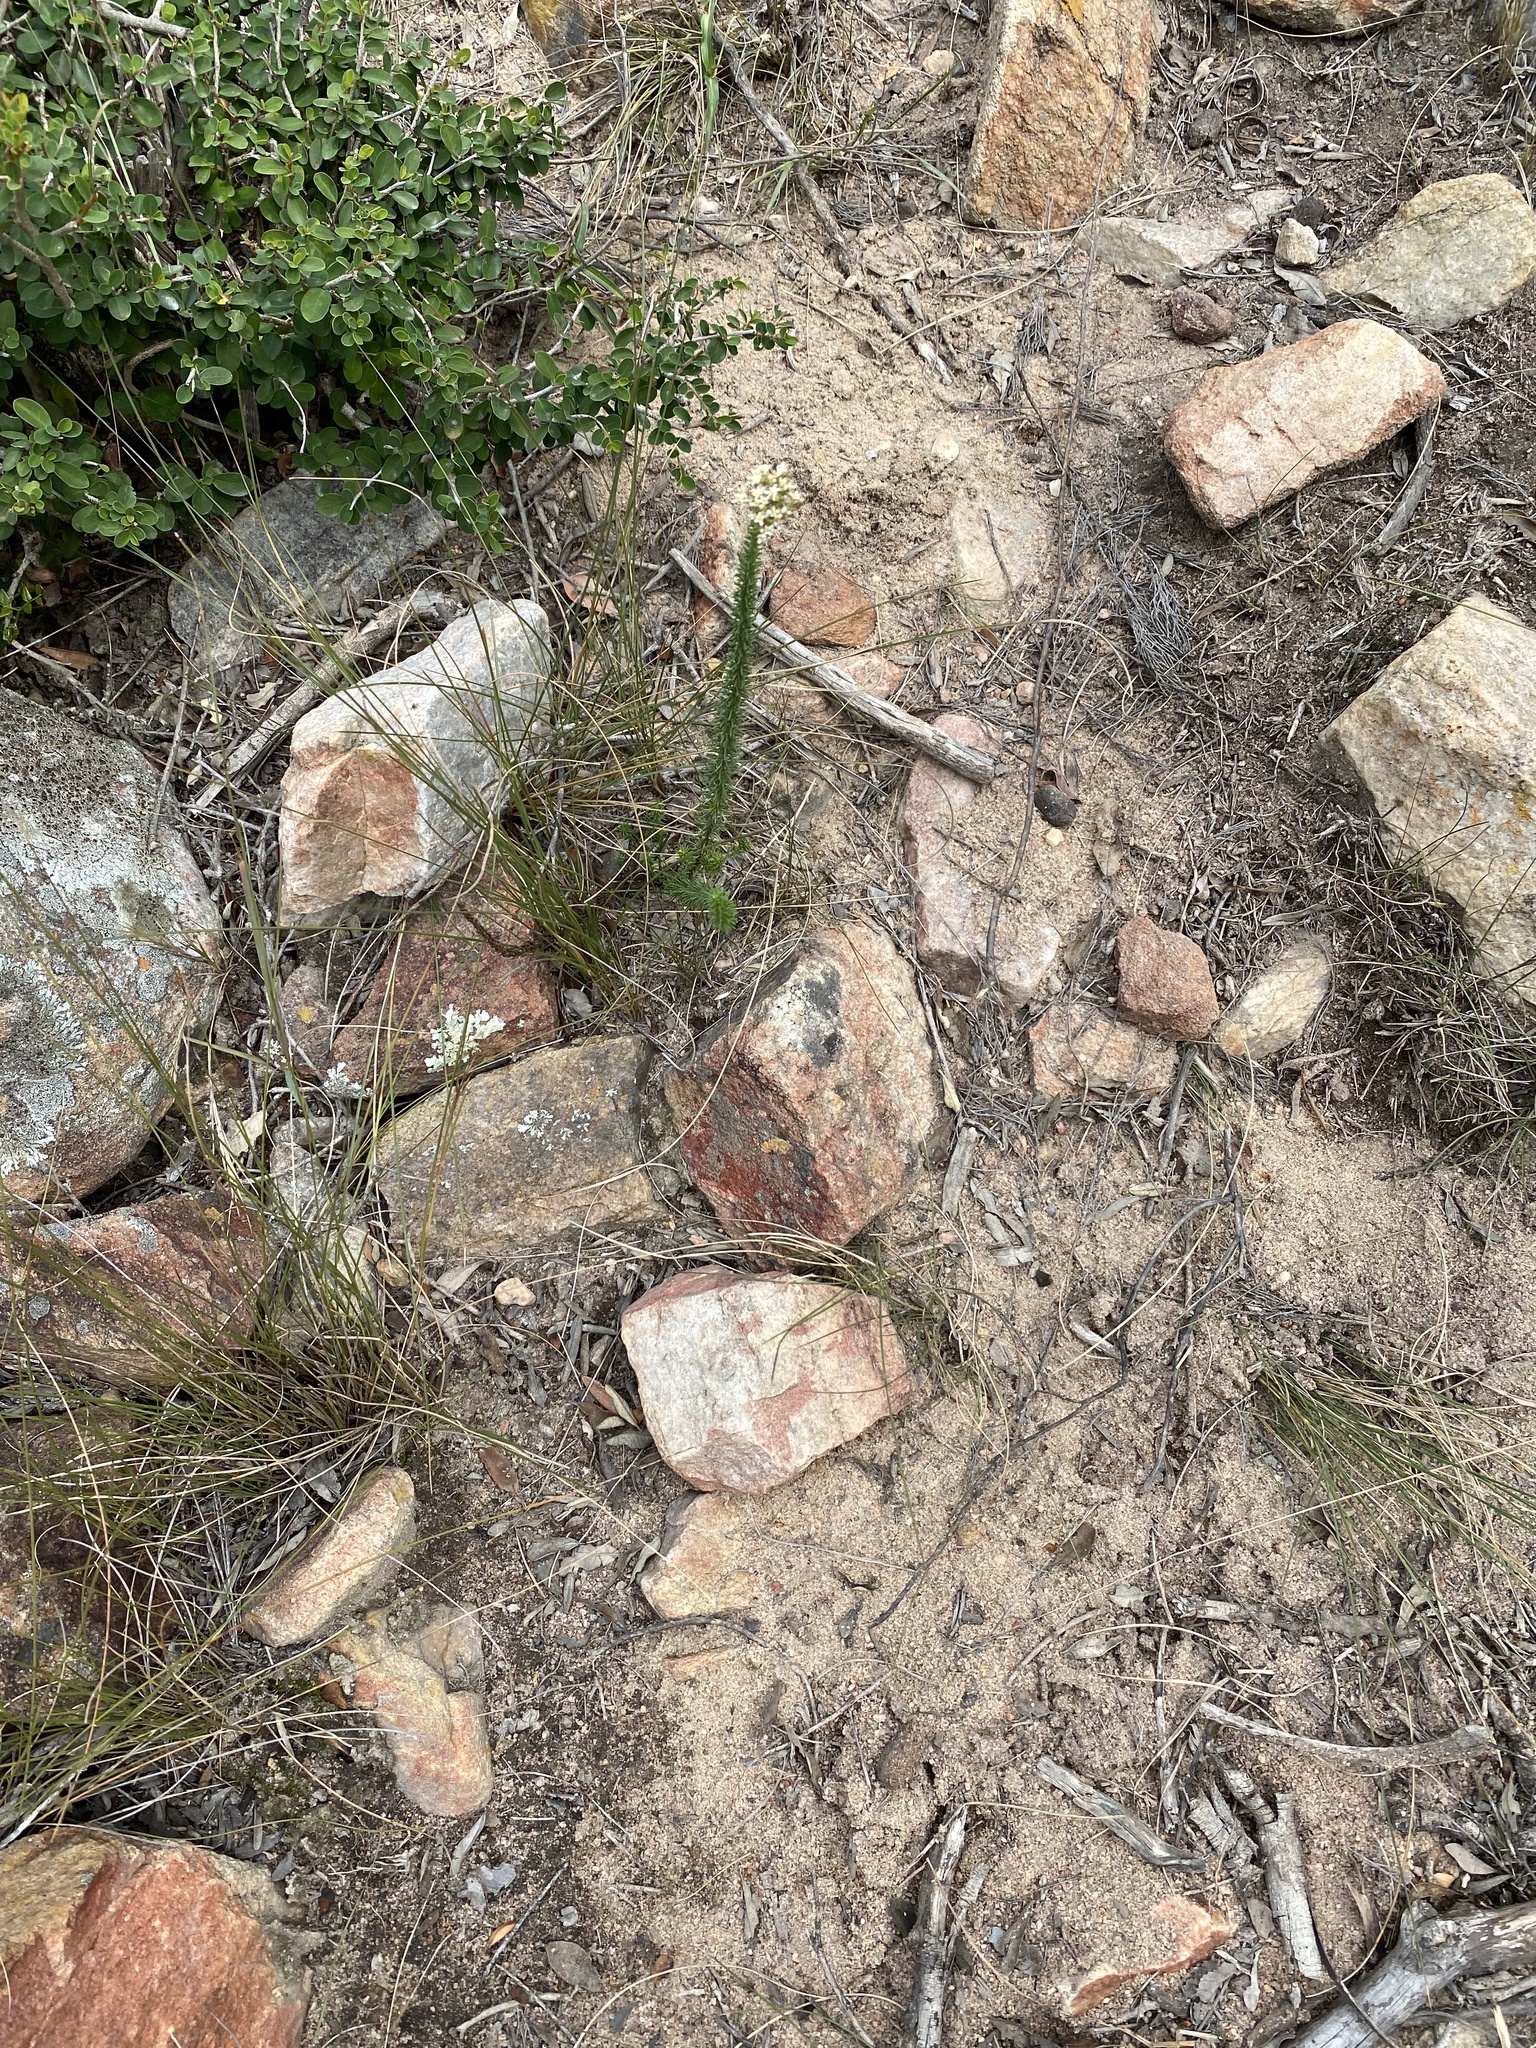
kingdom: Plantae
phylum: Tracheophyta
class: Magnoliopsida
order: Lamiales
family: Scrophulariaceae
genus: Selago
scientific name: Selago dolosa
